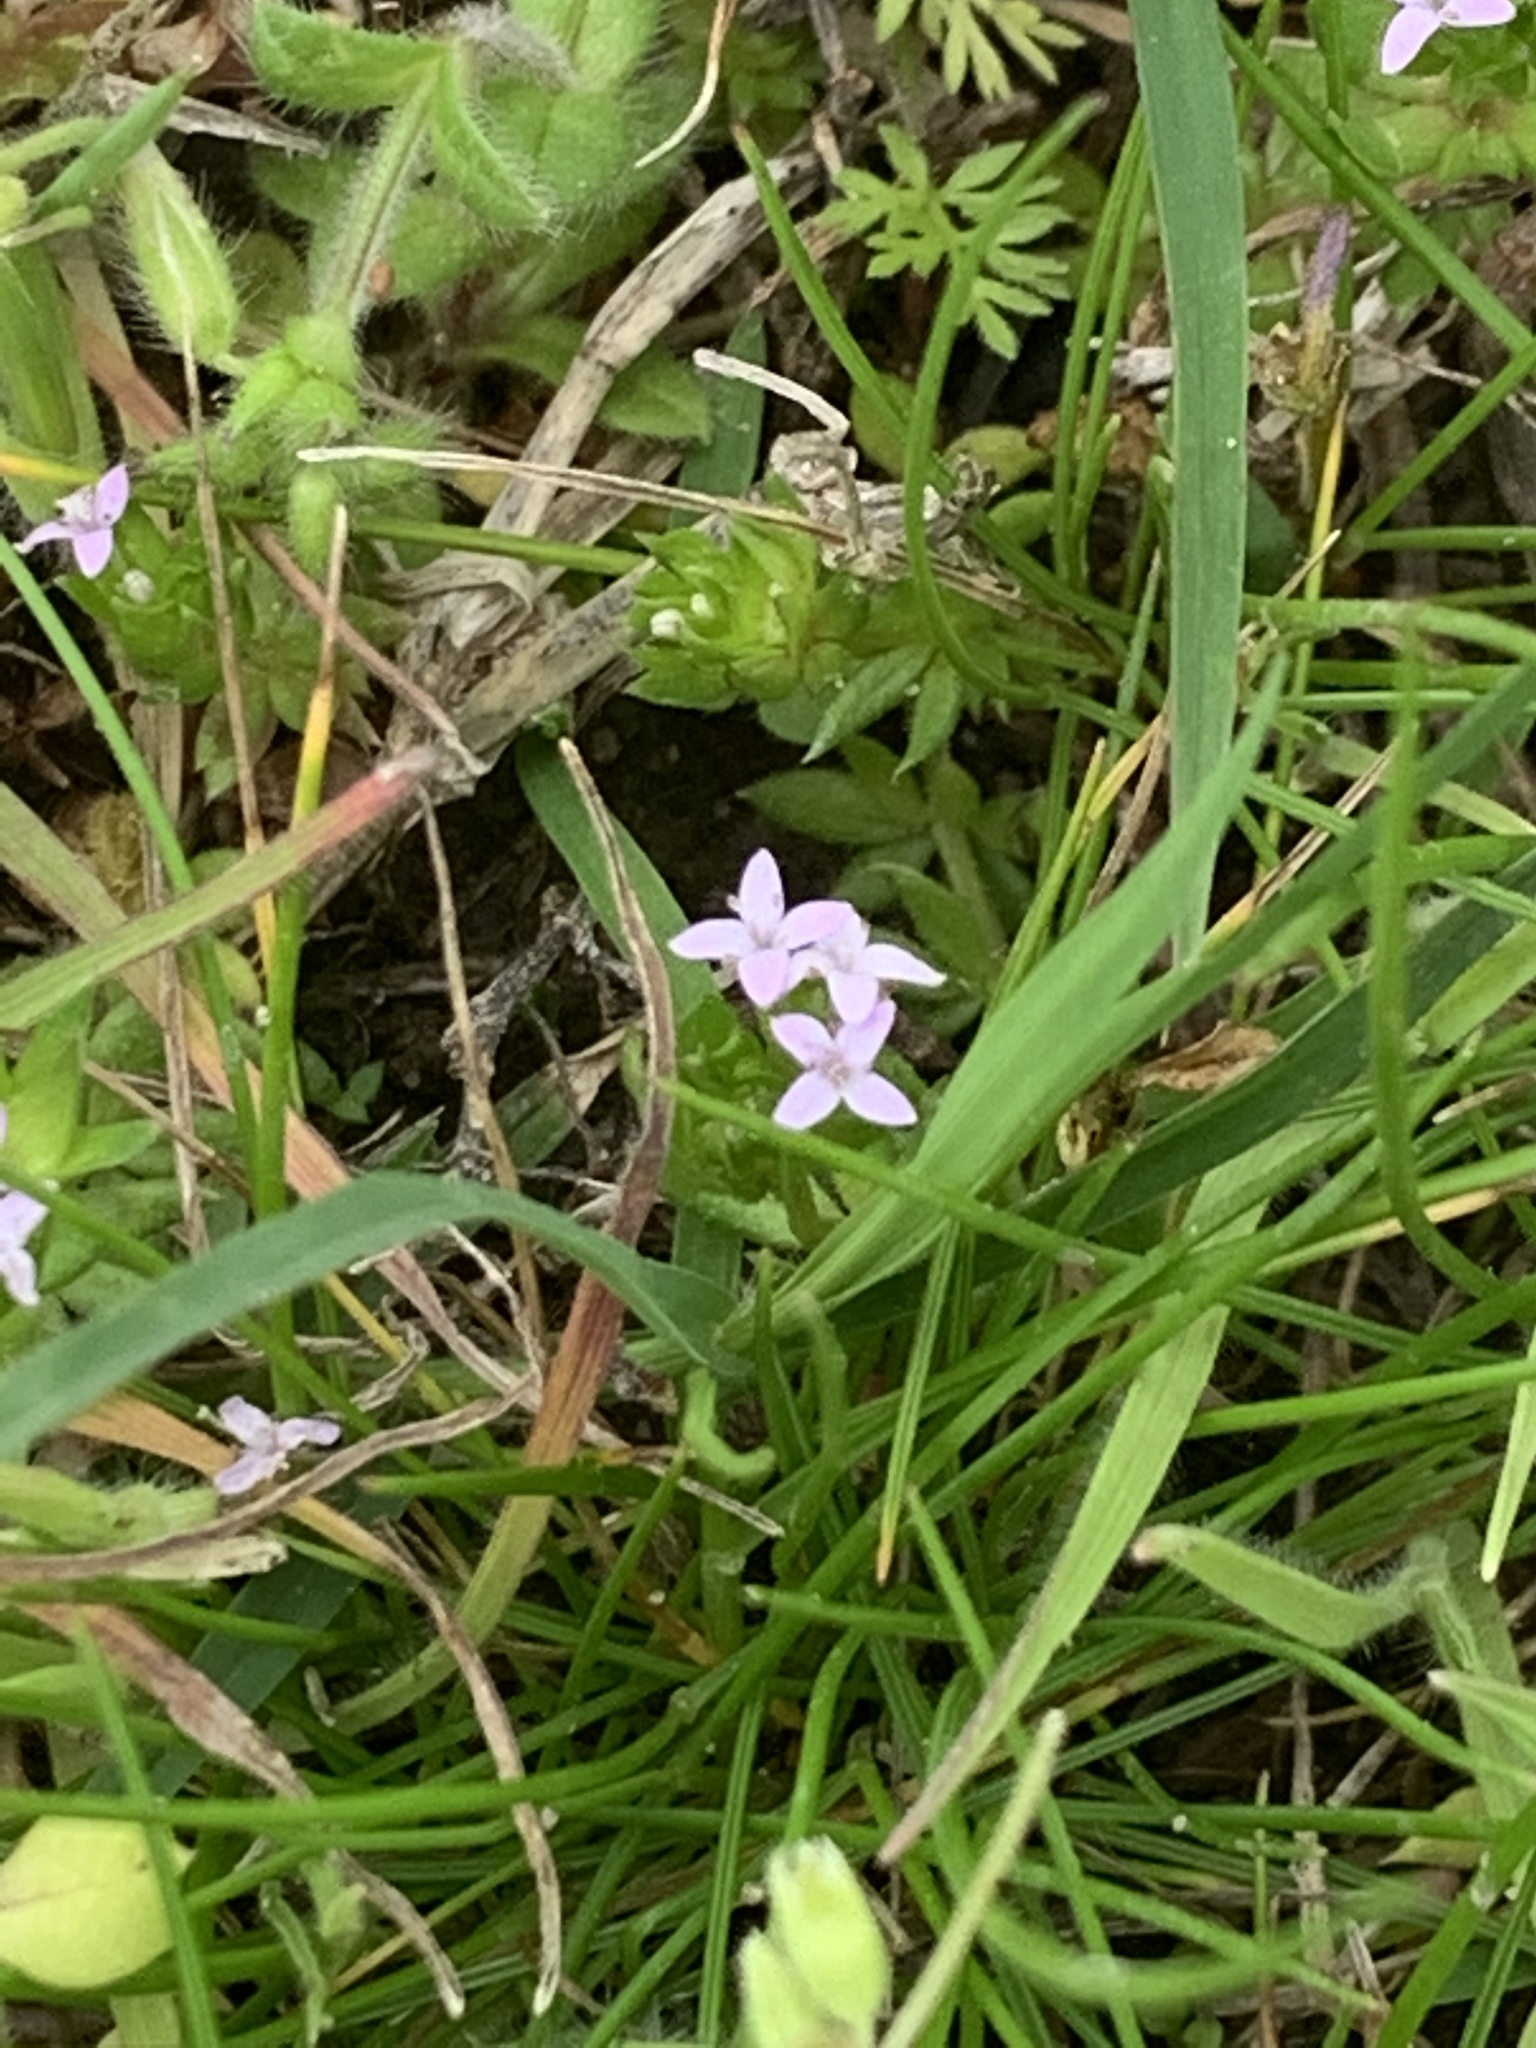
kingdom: Plantae
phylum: Tracheophyta
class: Magnoliopsida
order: Gentianales
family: Rubiaceae
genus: Sherardia
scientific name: Sherardia arvensis
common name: Field madder
